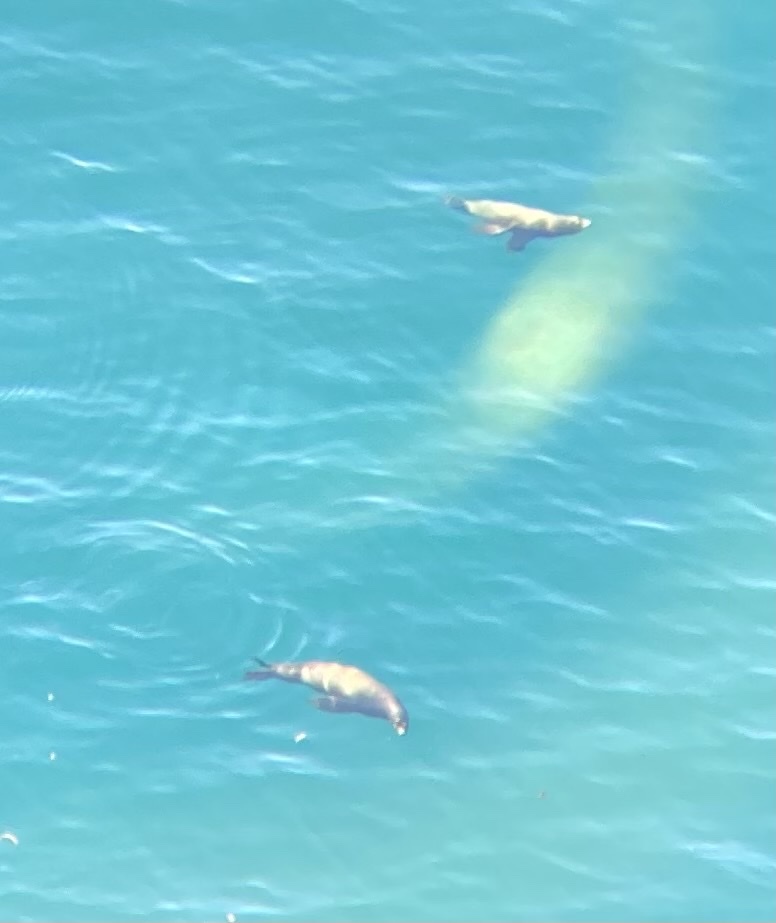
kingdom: Animalia
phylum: Chordata
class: Mammalia
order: Carnivora
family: Otariidae
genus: Zalophus
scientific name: Zalophus californianus
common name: California sea lion
